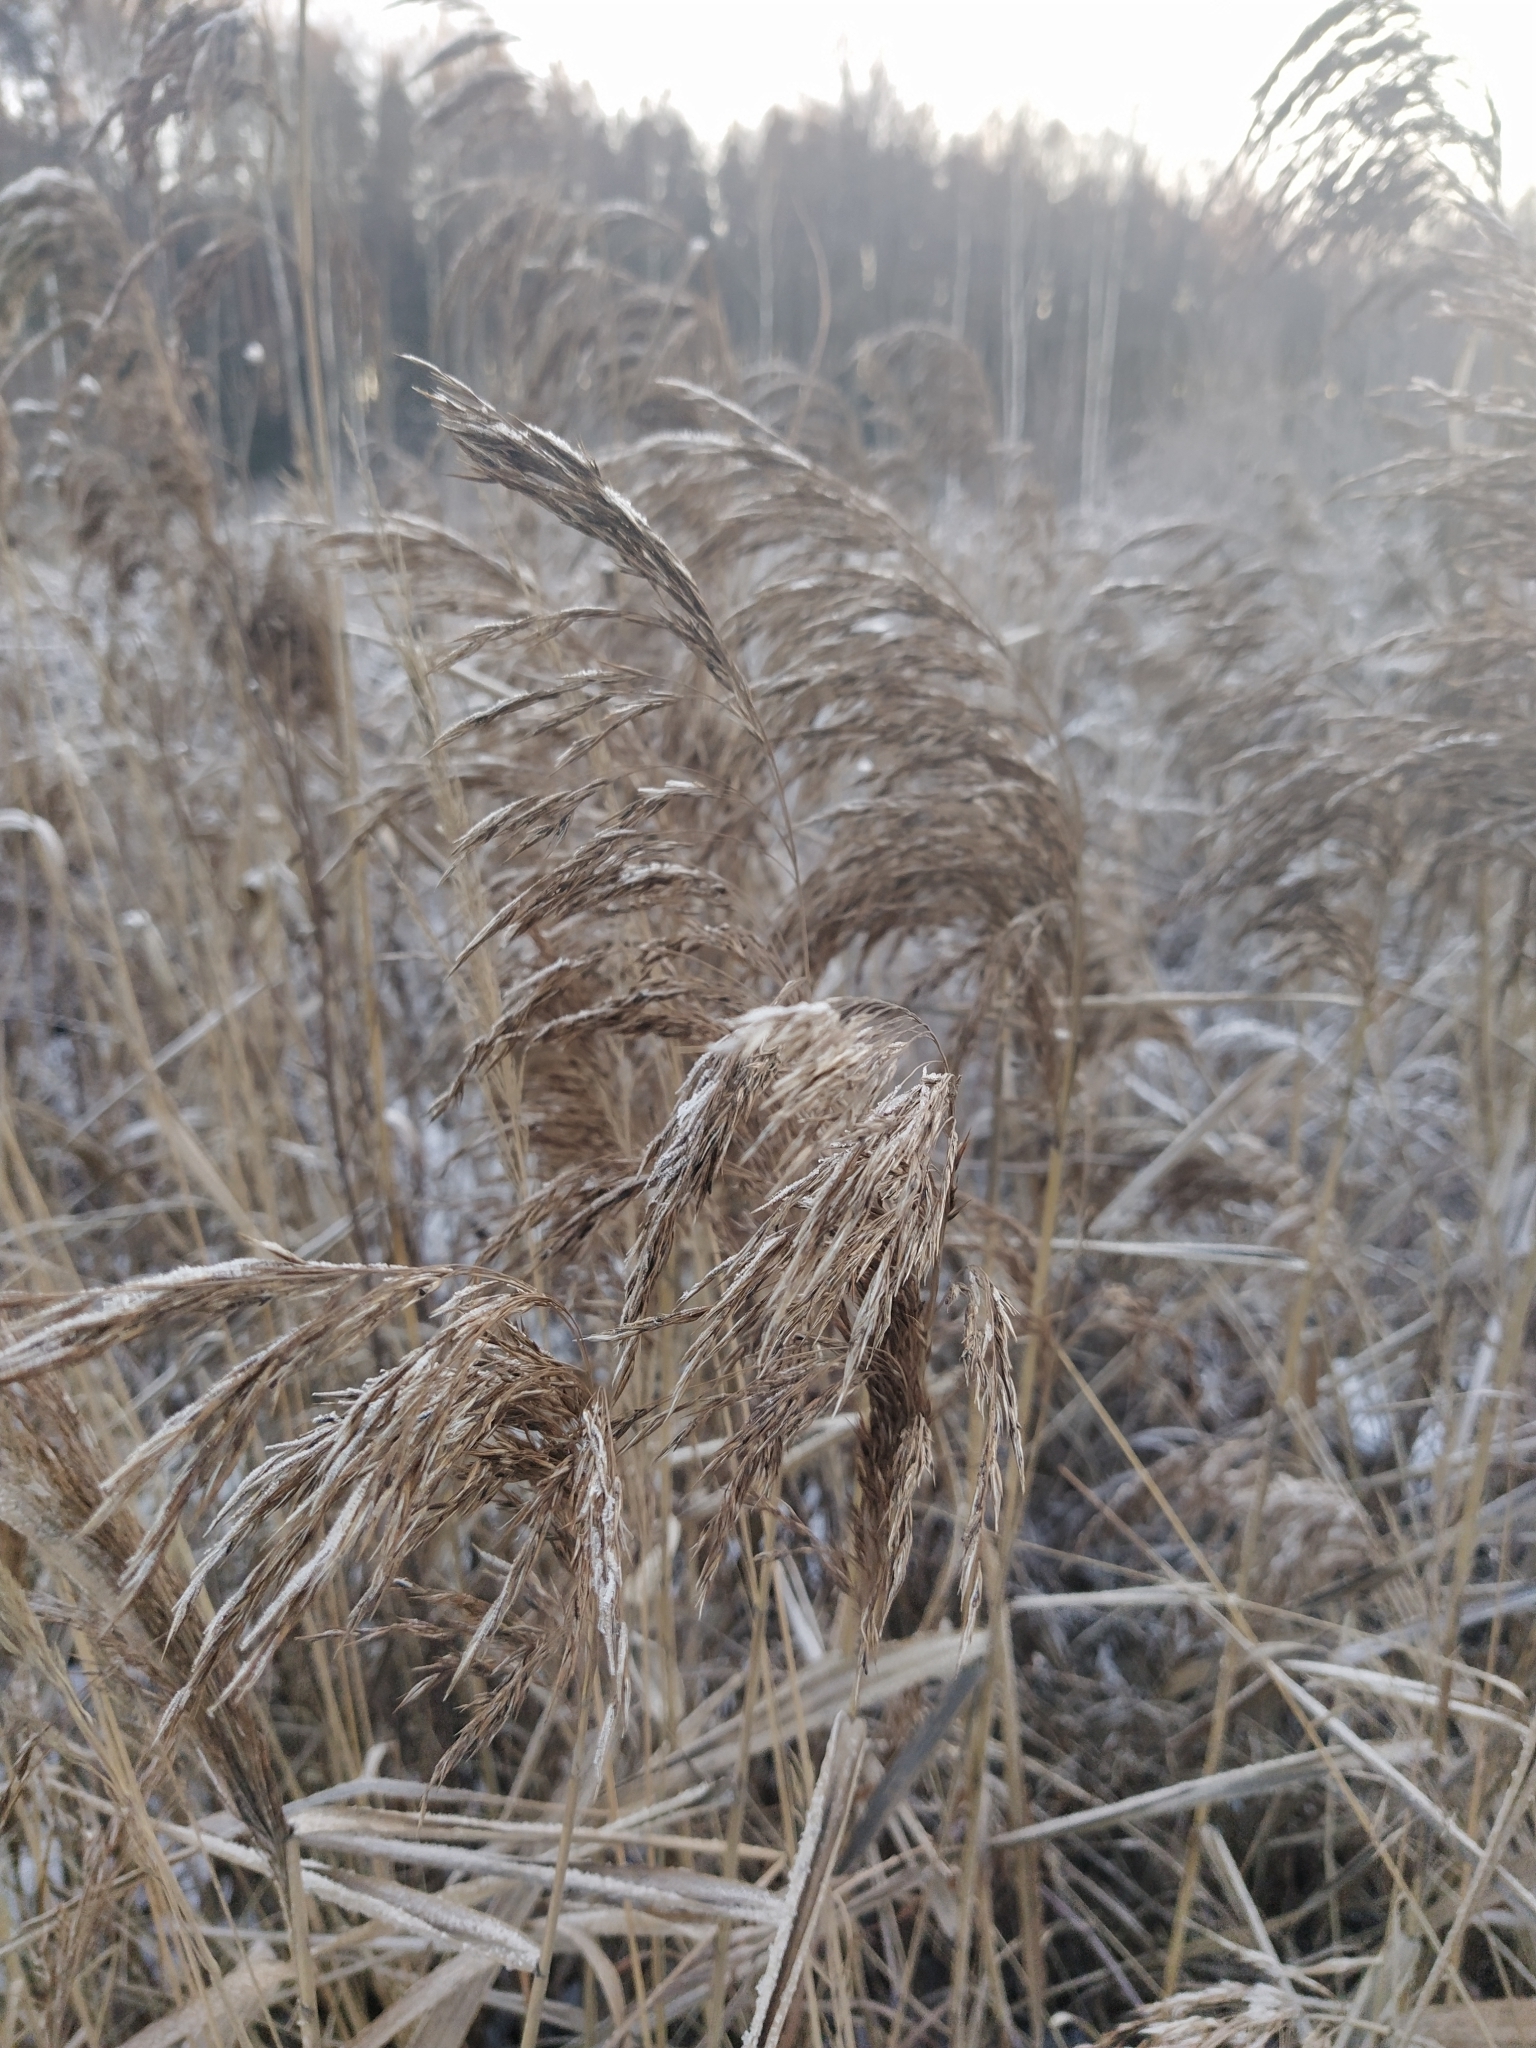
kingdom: Plantae
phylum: Tracheophyta
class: Liliopsida
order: Poales
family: Poaceae
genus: Phragmites
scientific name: Phragmites australis
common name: Common reed
